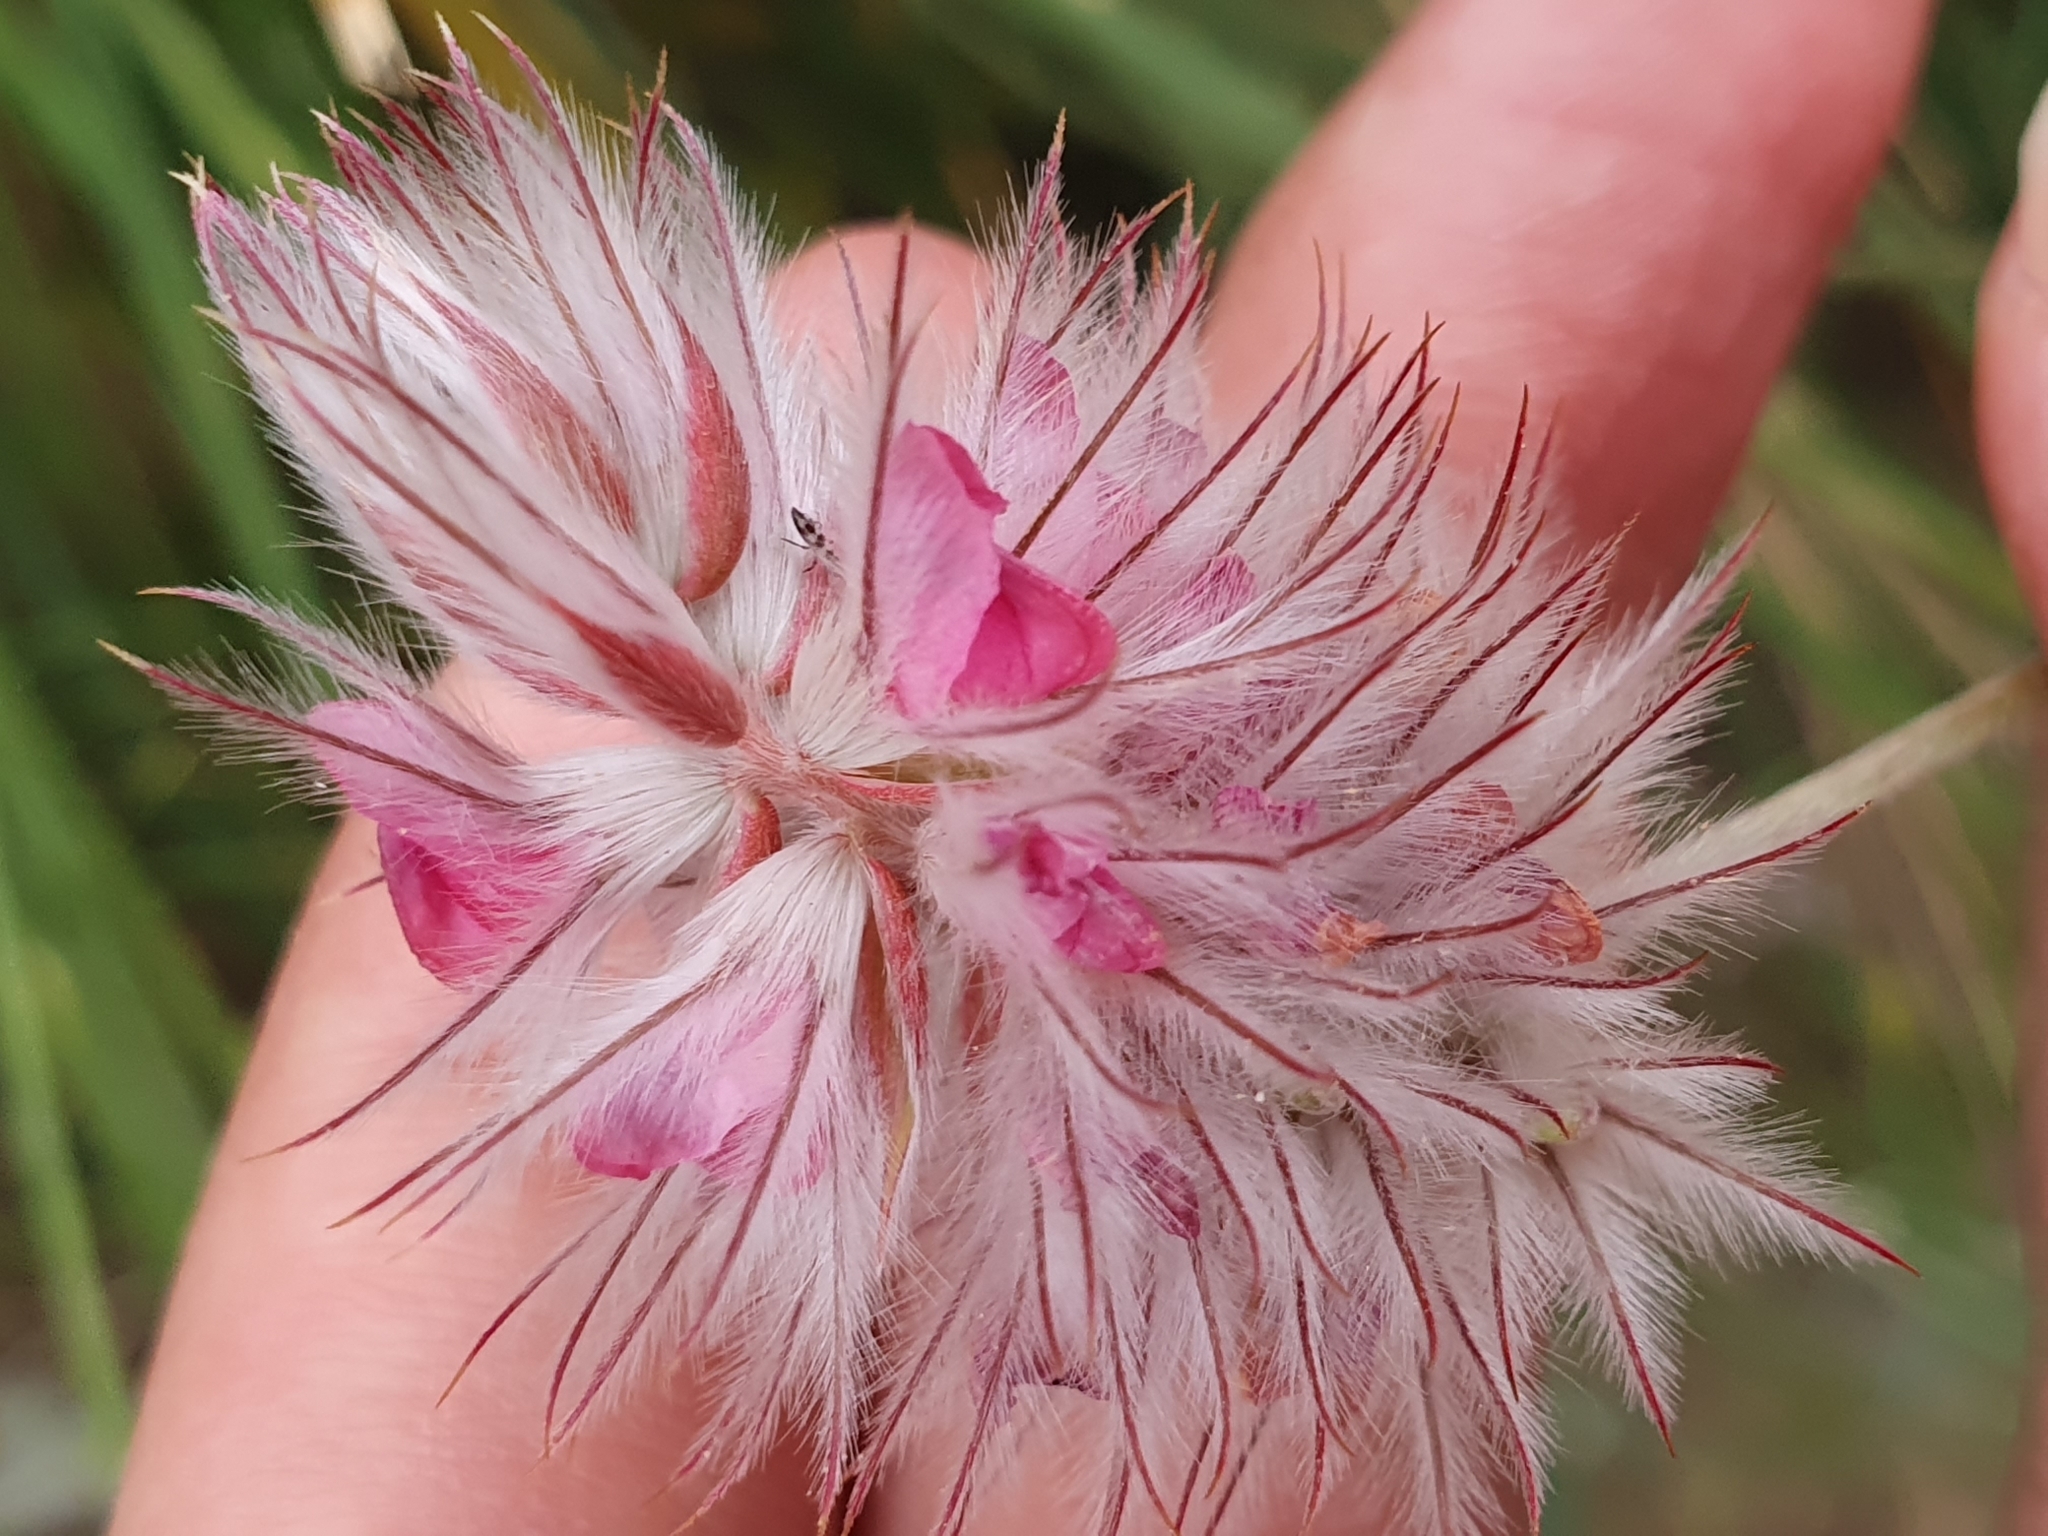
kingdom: Plantae
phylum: Tracheophyta
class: Magnoliopsida
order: Fabales
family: Fabaceae
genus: Ebenus
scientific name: Ebenus pinnata
